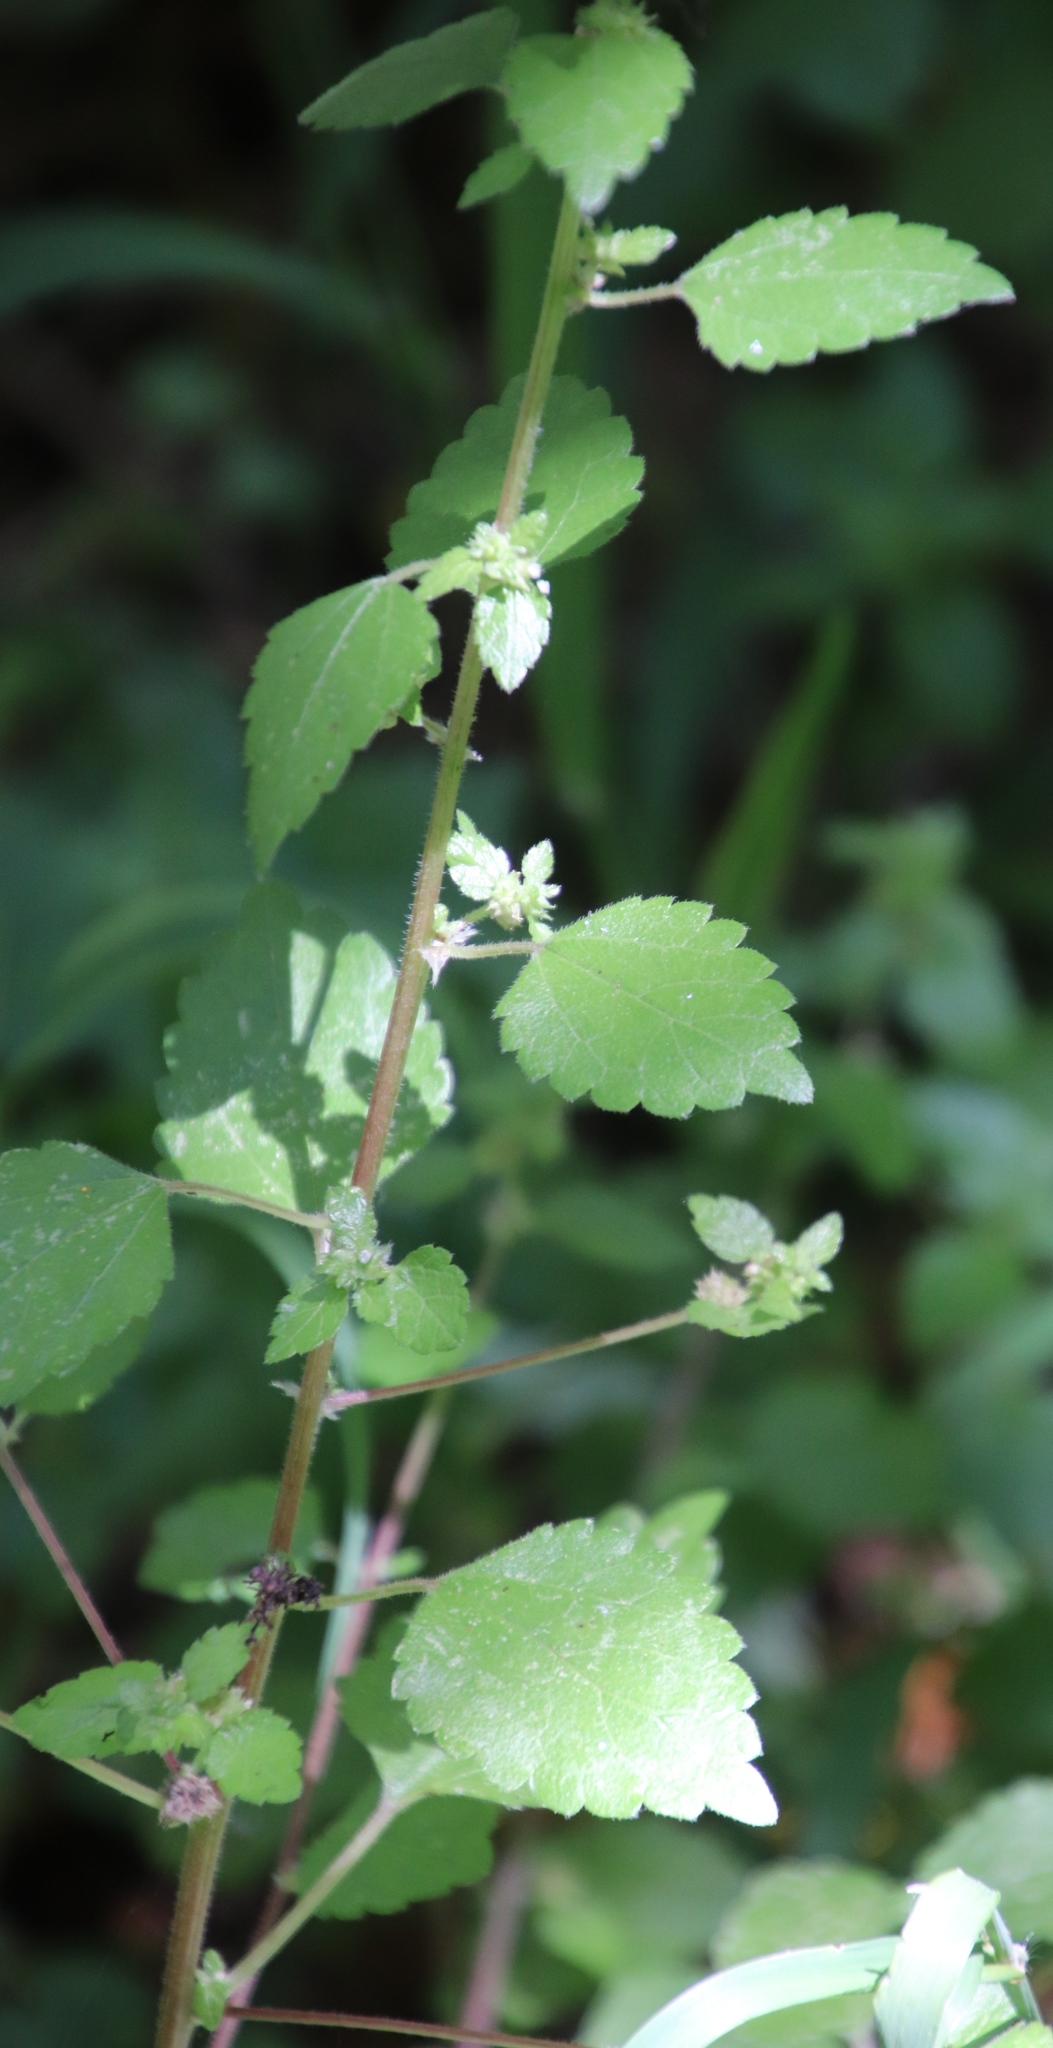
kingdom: Plantae
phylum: Tracheophyta
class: Magnoliopsida
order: Rosales
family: Urticaceae
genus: Didymodoxa
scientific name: Didymodoxa capensis
